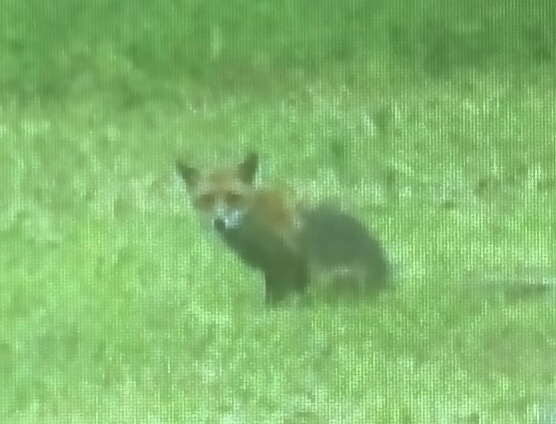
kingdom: Animalia
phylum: Chordata
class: Mammalia
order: Carnivora
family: Canidae
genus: Vulpes
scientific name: Vulpes vulpes
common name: Red fox
